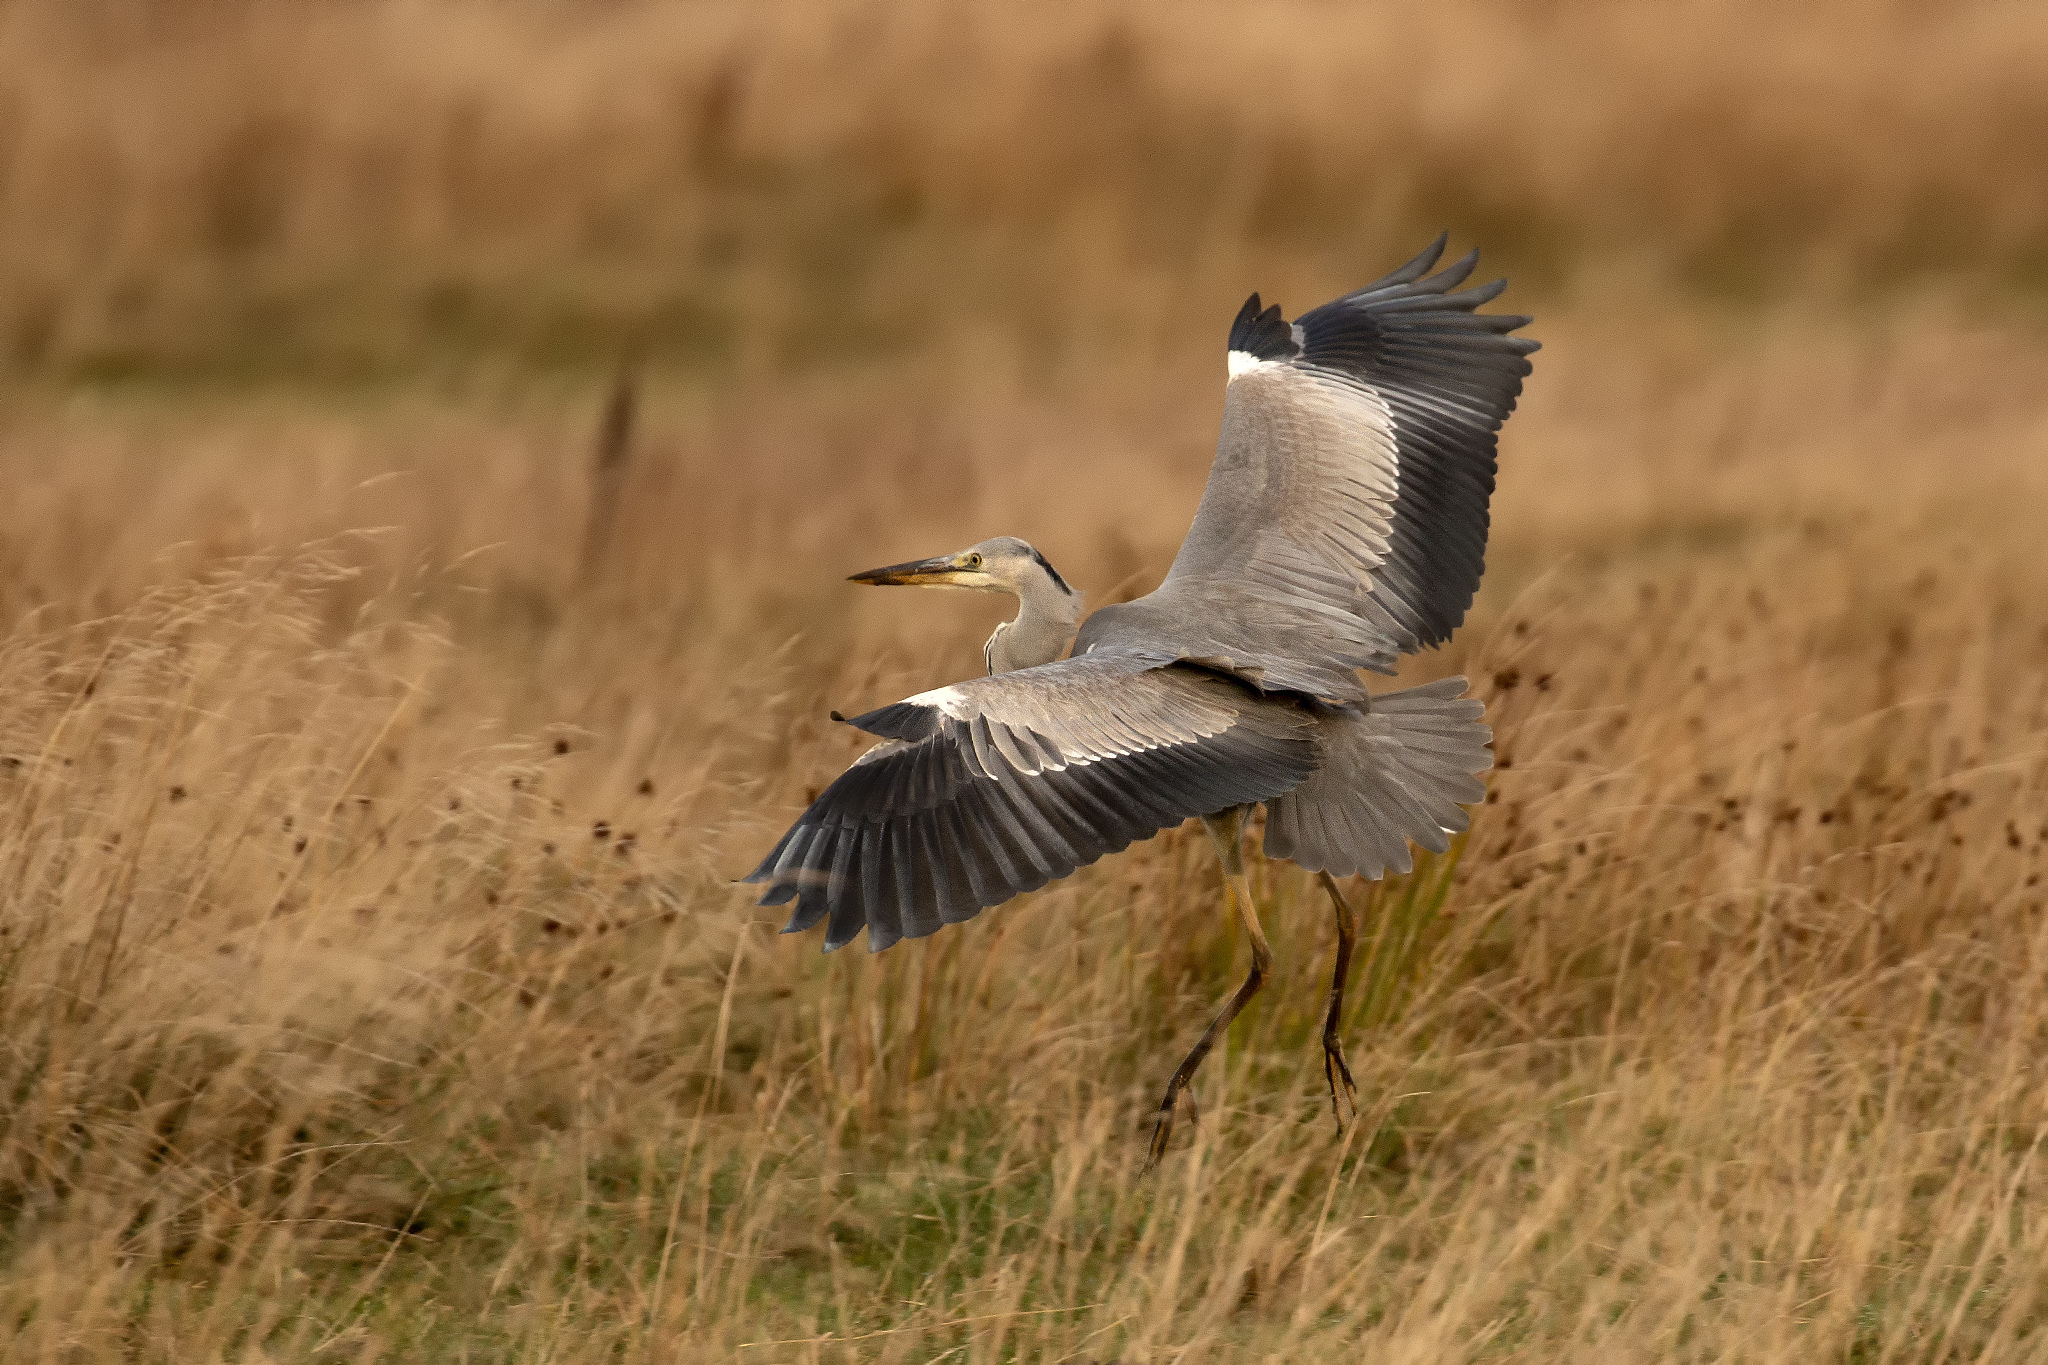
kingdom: Animalia
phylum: Chordata
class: Aves
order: Pelecaniformes
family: Ardeidae
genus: Ardea
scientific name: Ardea cinerea
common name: Grey heron
